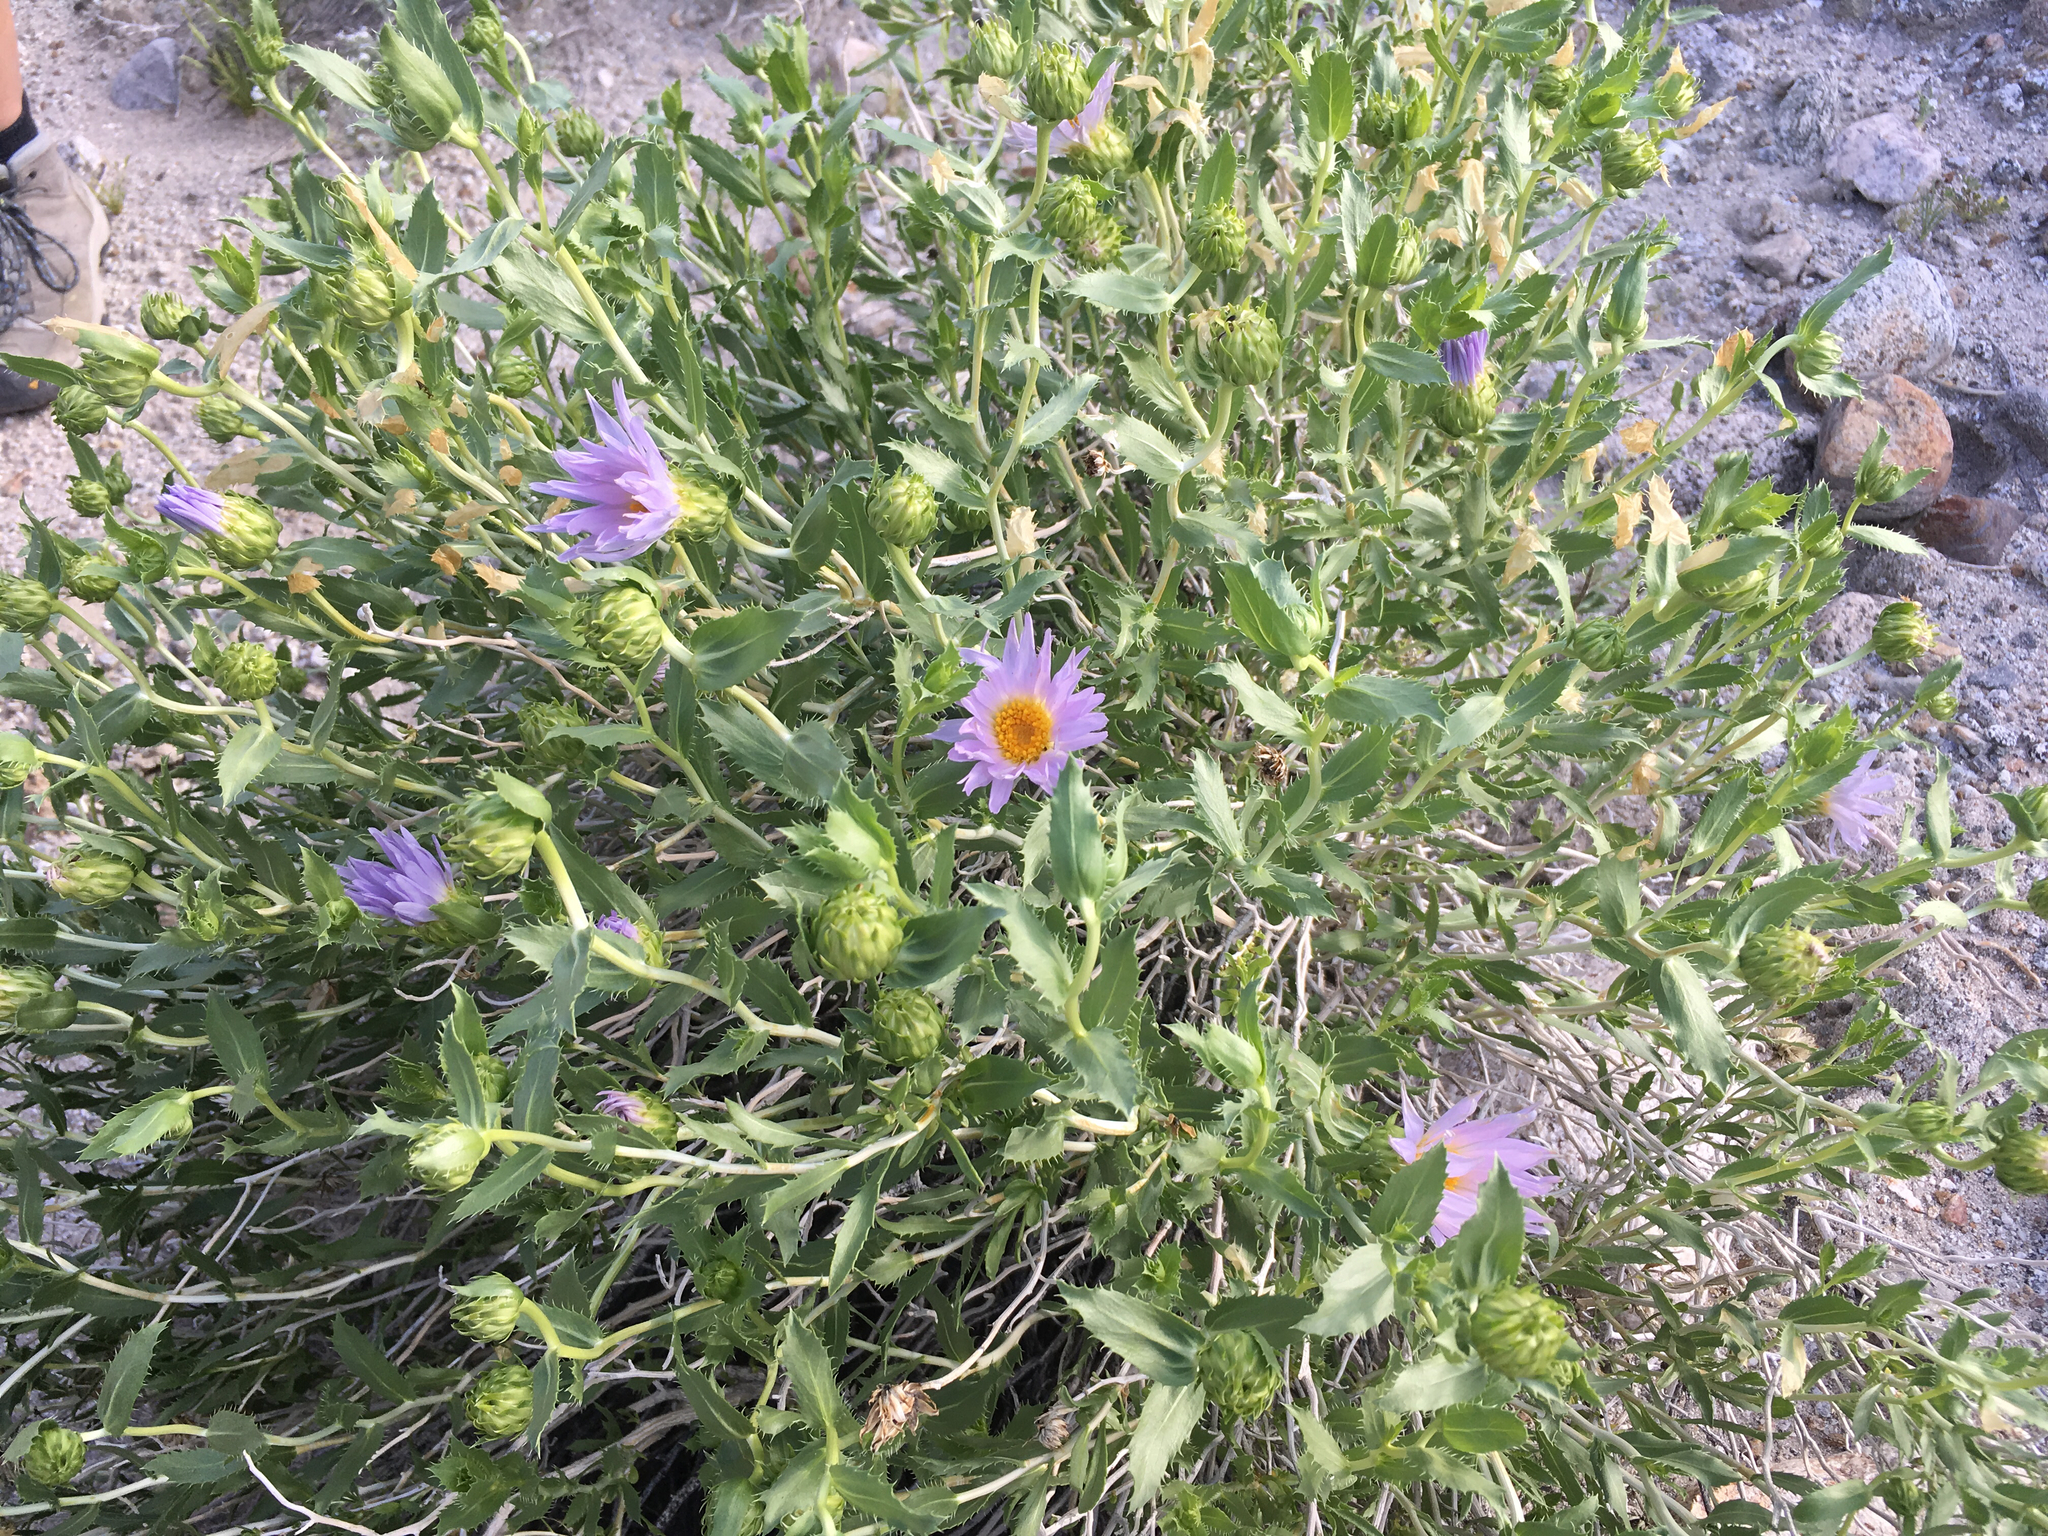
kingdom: Plantae
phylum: Tracheophyta
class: Magnoliopsida
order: Asterales
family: Asteraceae
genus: Xylorhiza
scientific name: Xylorhiza orcuttii
